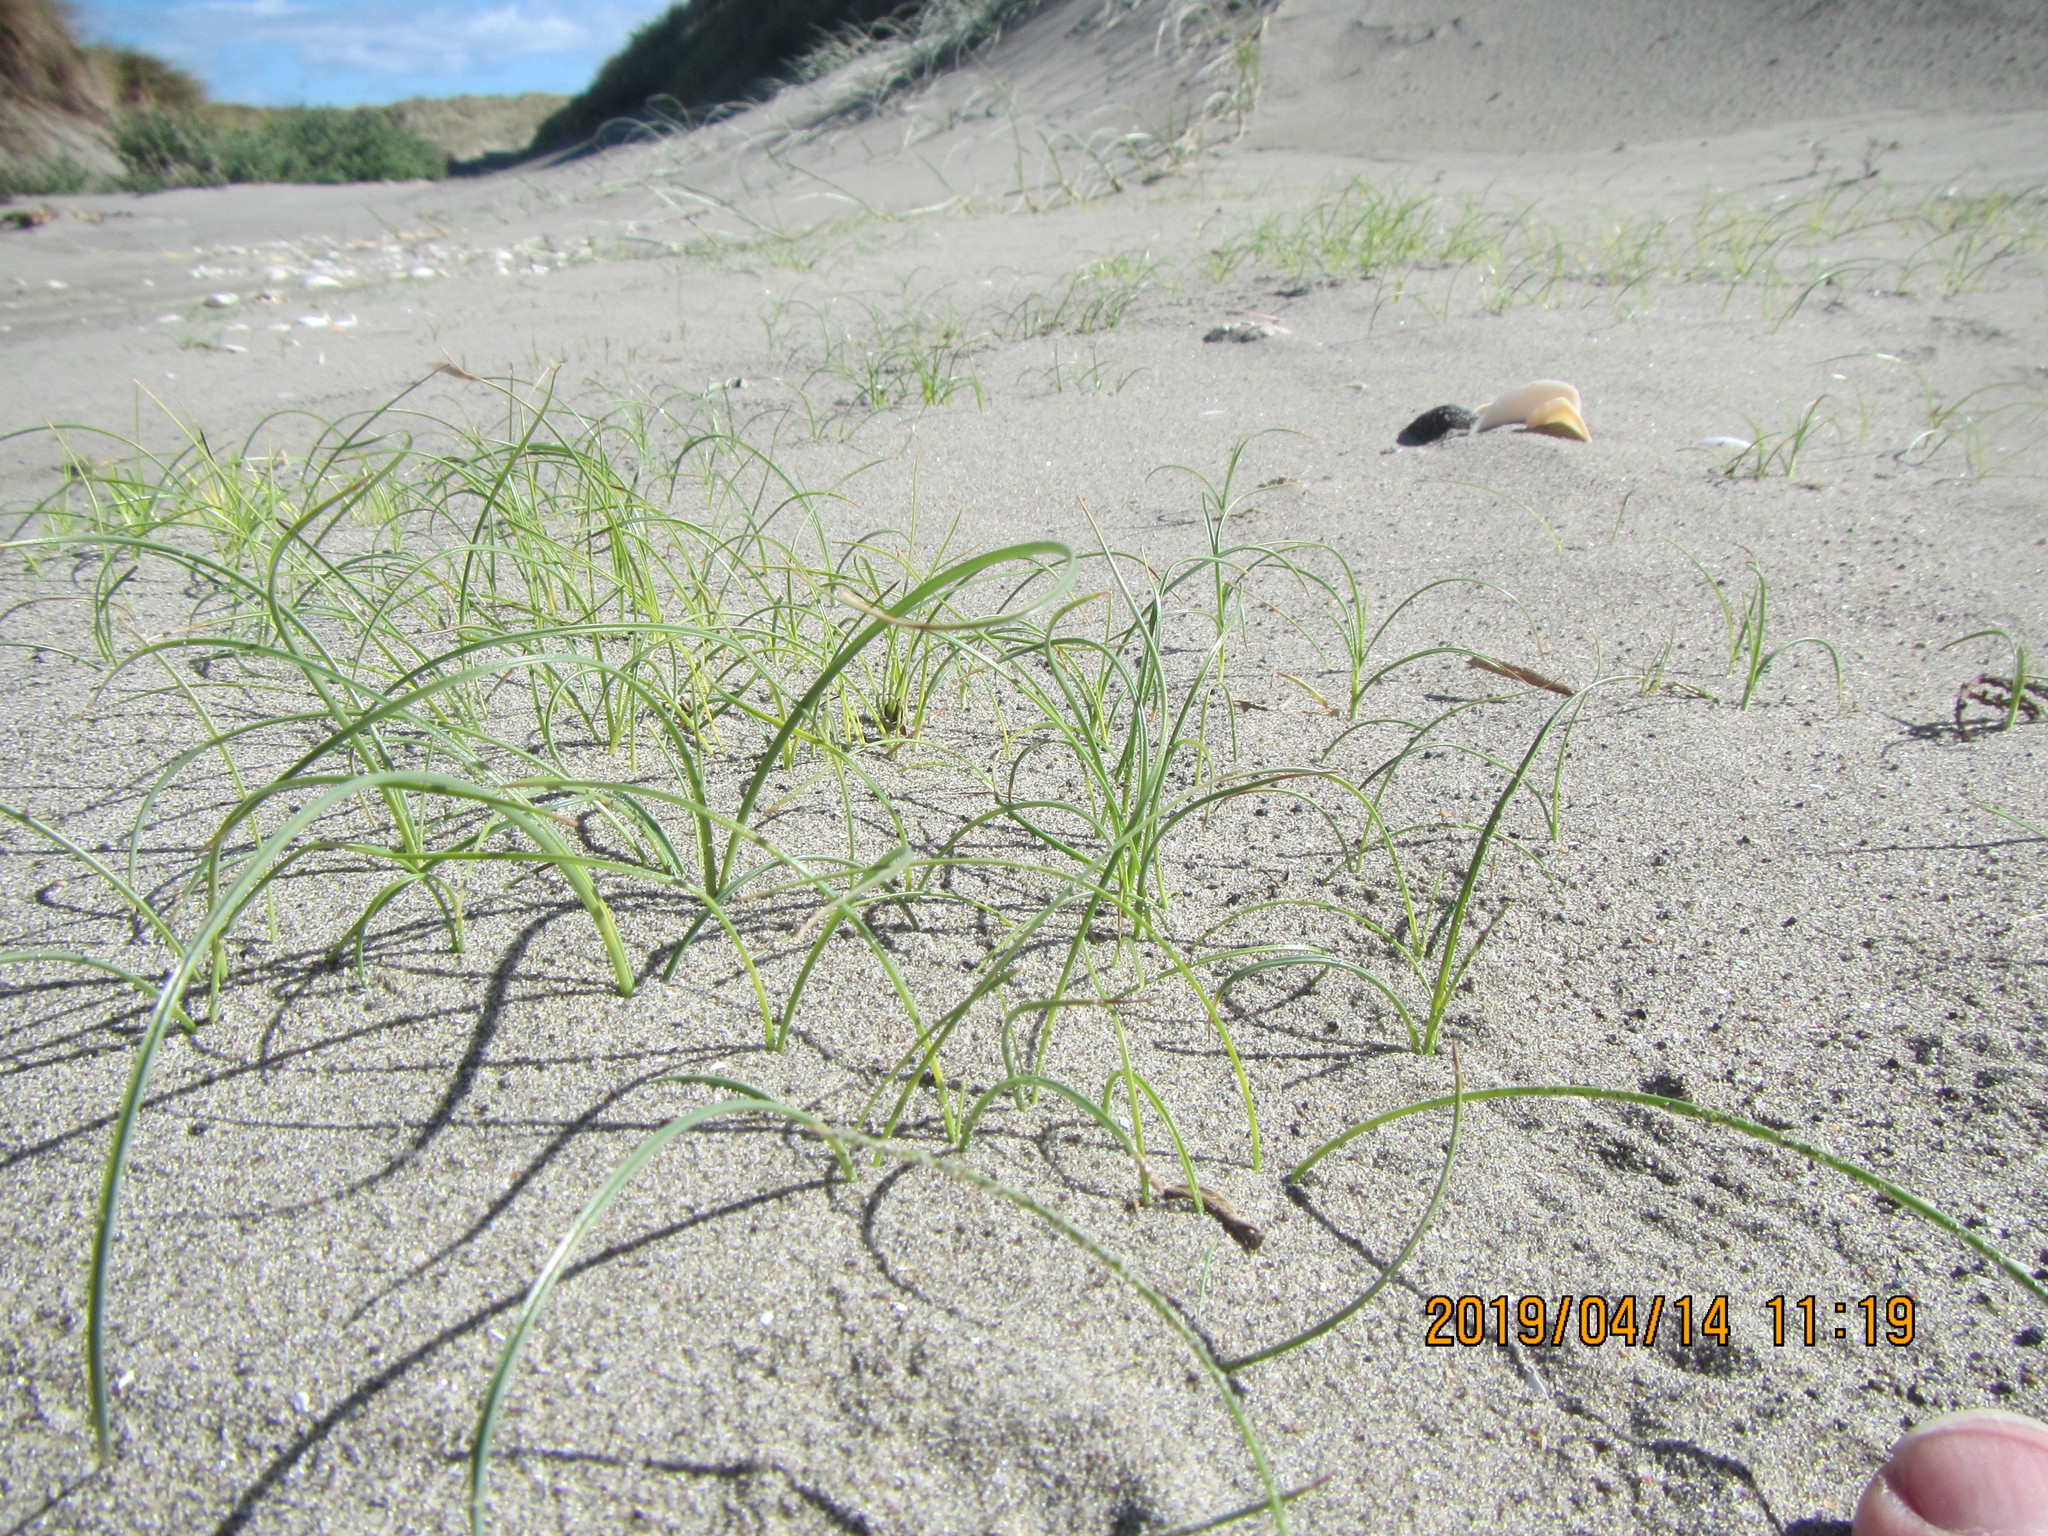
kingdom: Plantae
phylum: Tracheophyta
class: Liliopsida
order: Poales
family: Cyperaceae
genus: Carex
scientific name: Carex pumila
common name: Dwarf sedge
